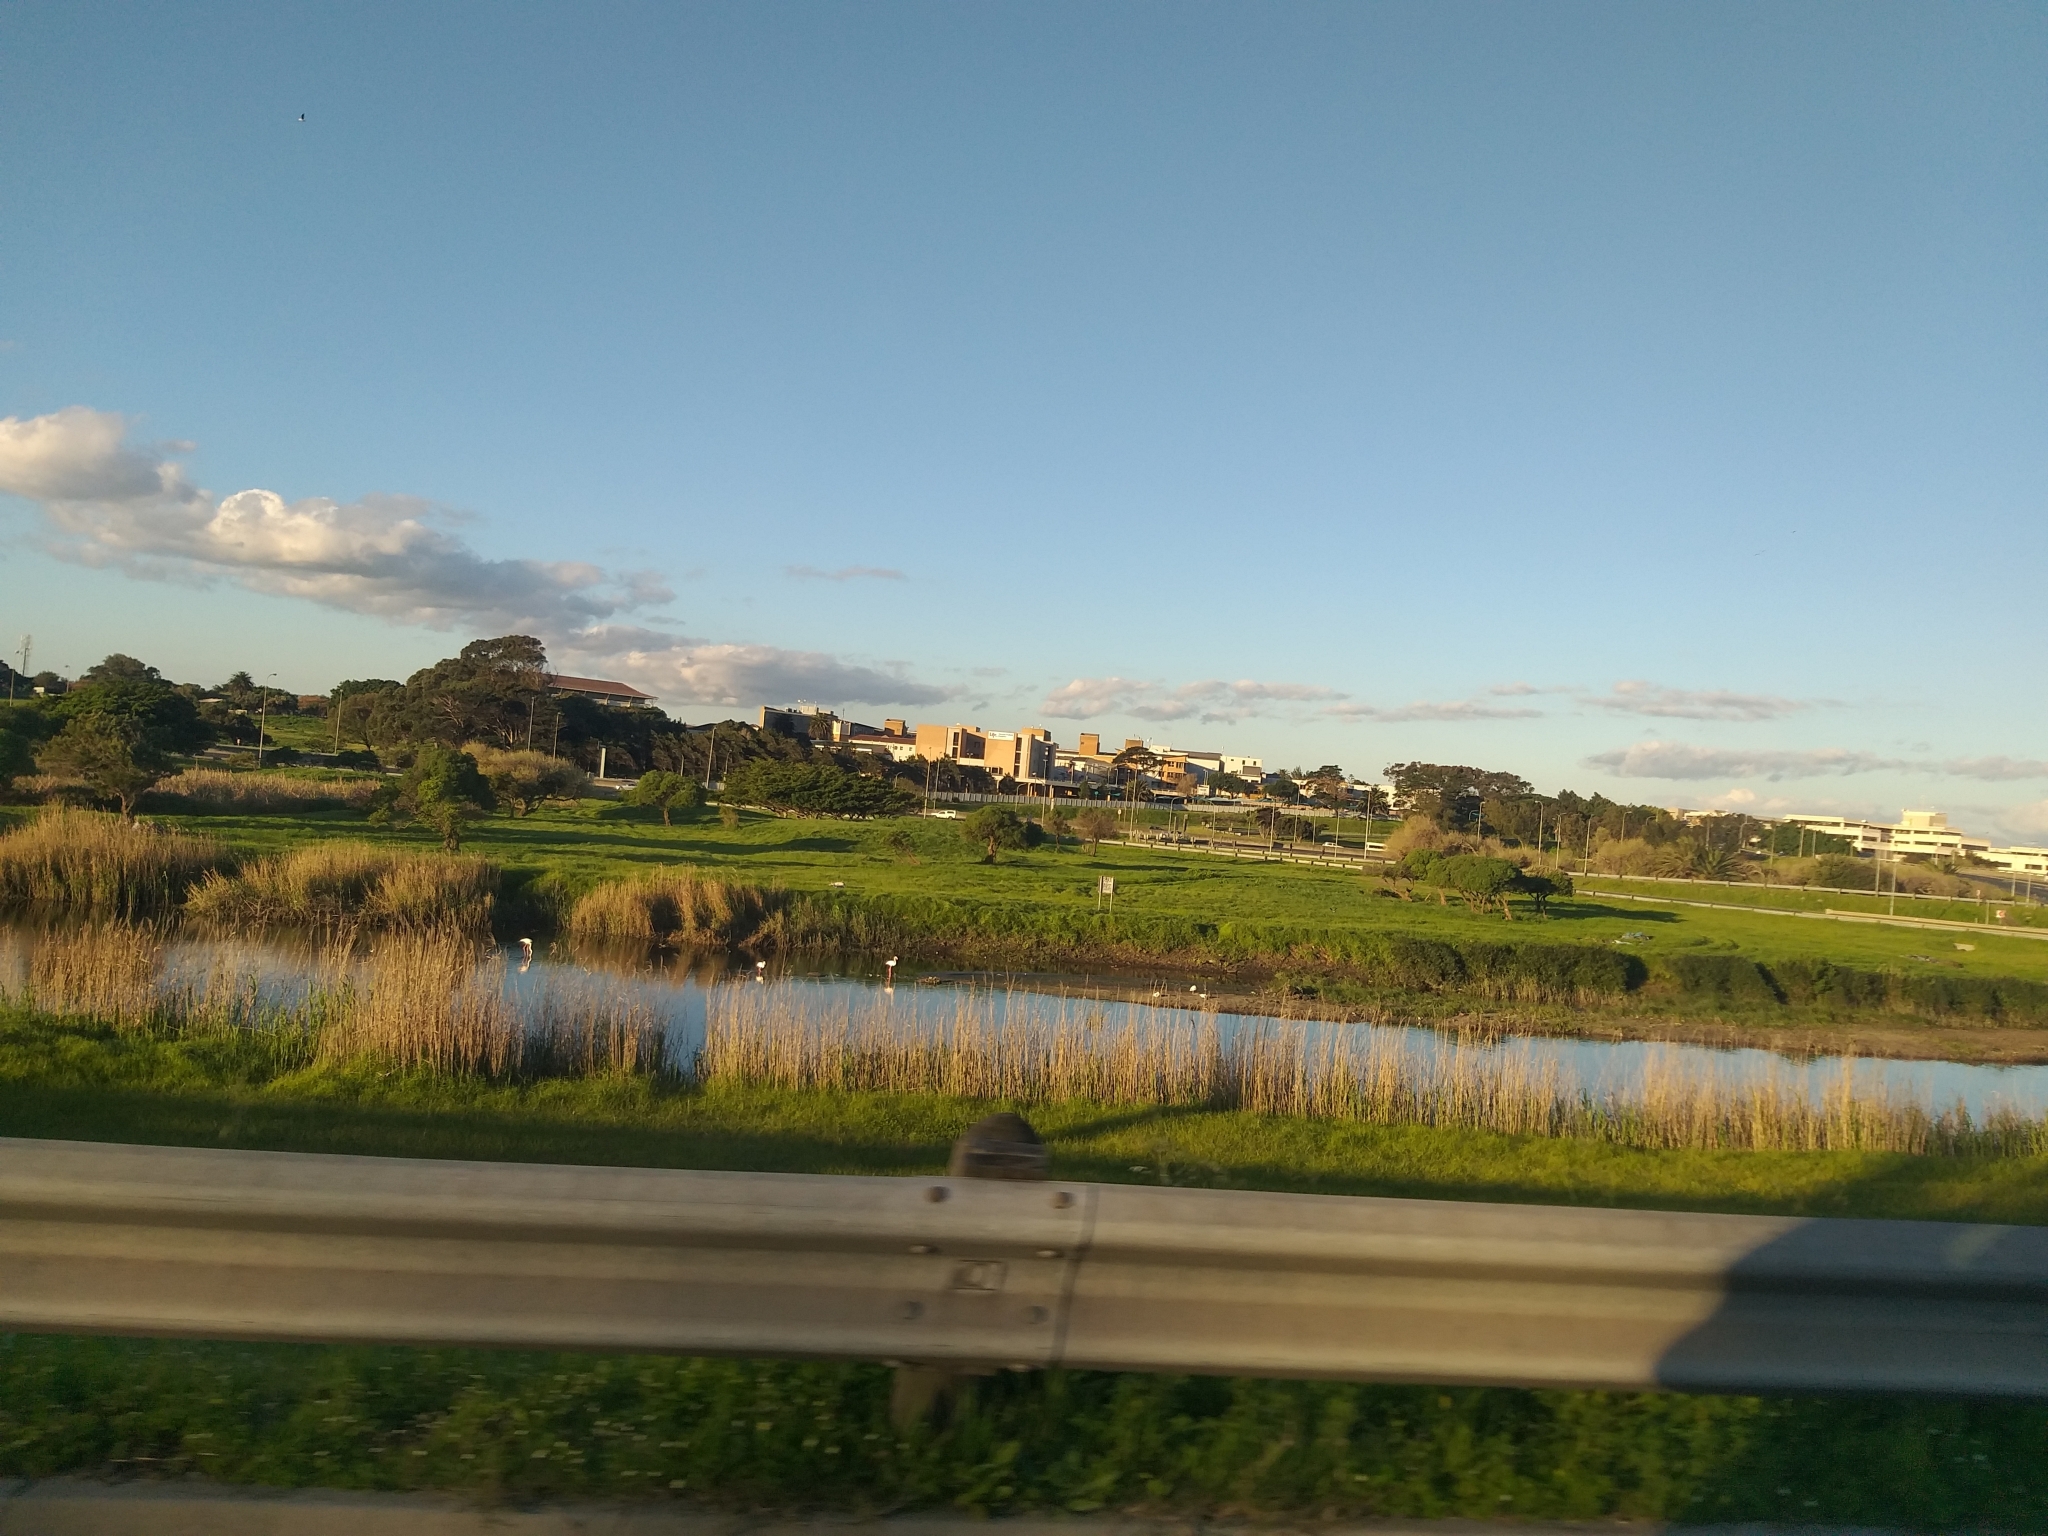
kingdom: Animalia
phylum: Chordata
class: Aves
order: Phoenicopteriformes
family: Phoenicopteridae
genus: Phoenicopterus
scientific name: Phoenicopterus roseus
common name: Greater flamingo
